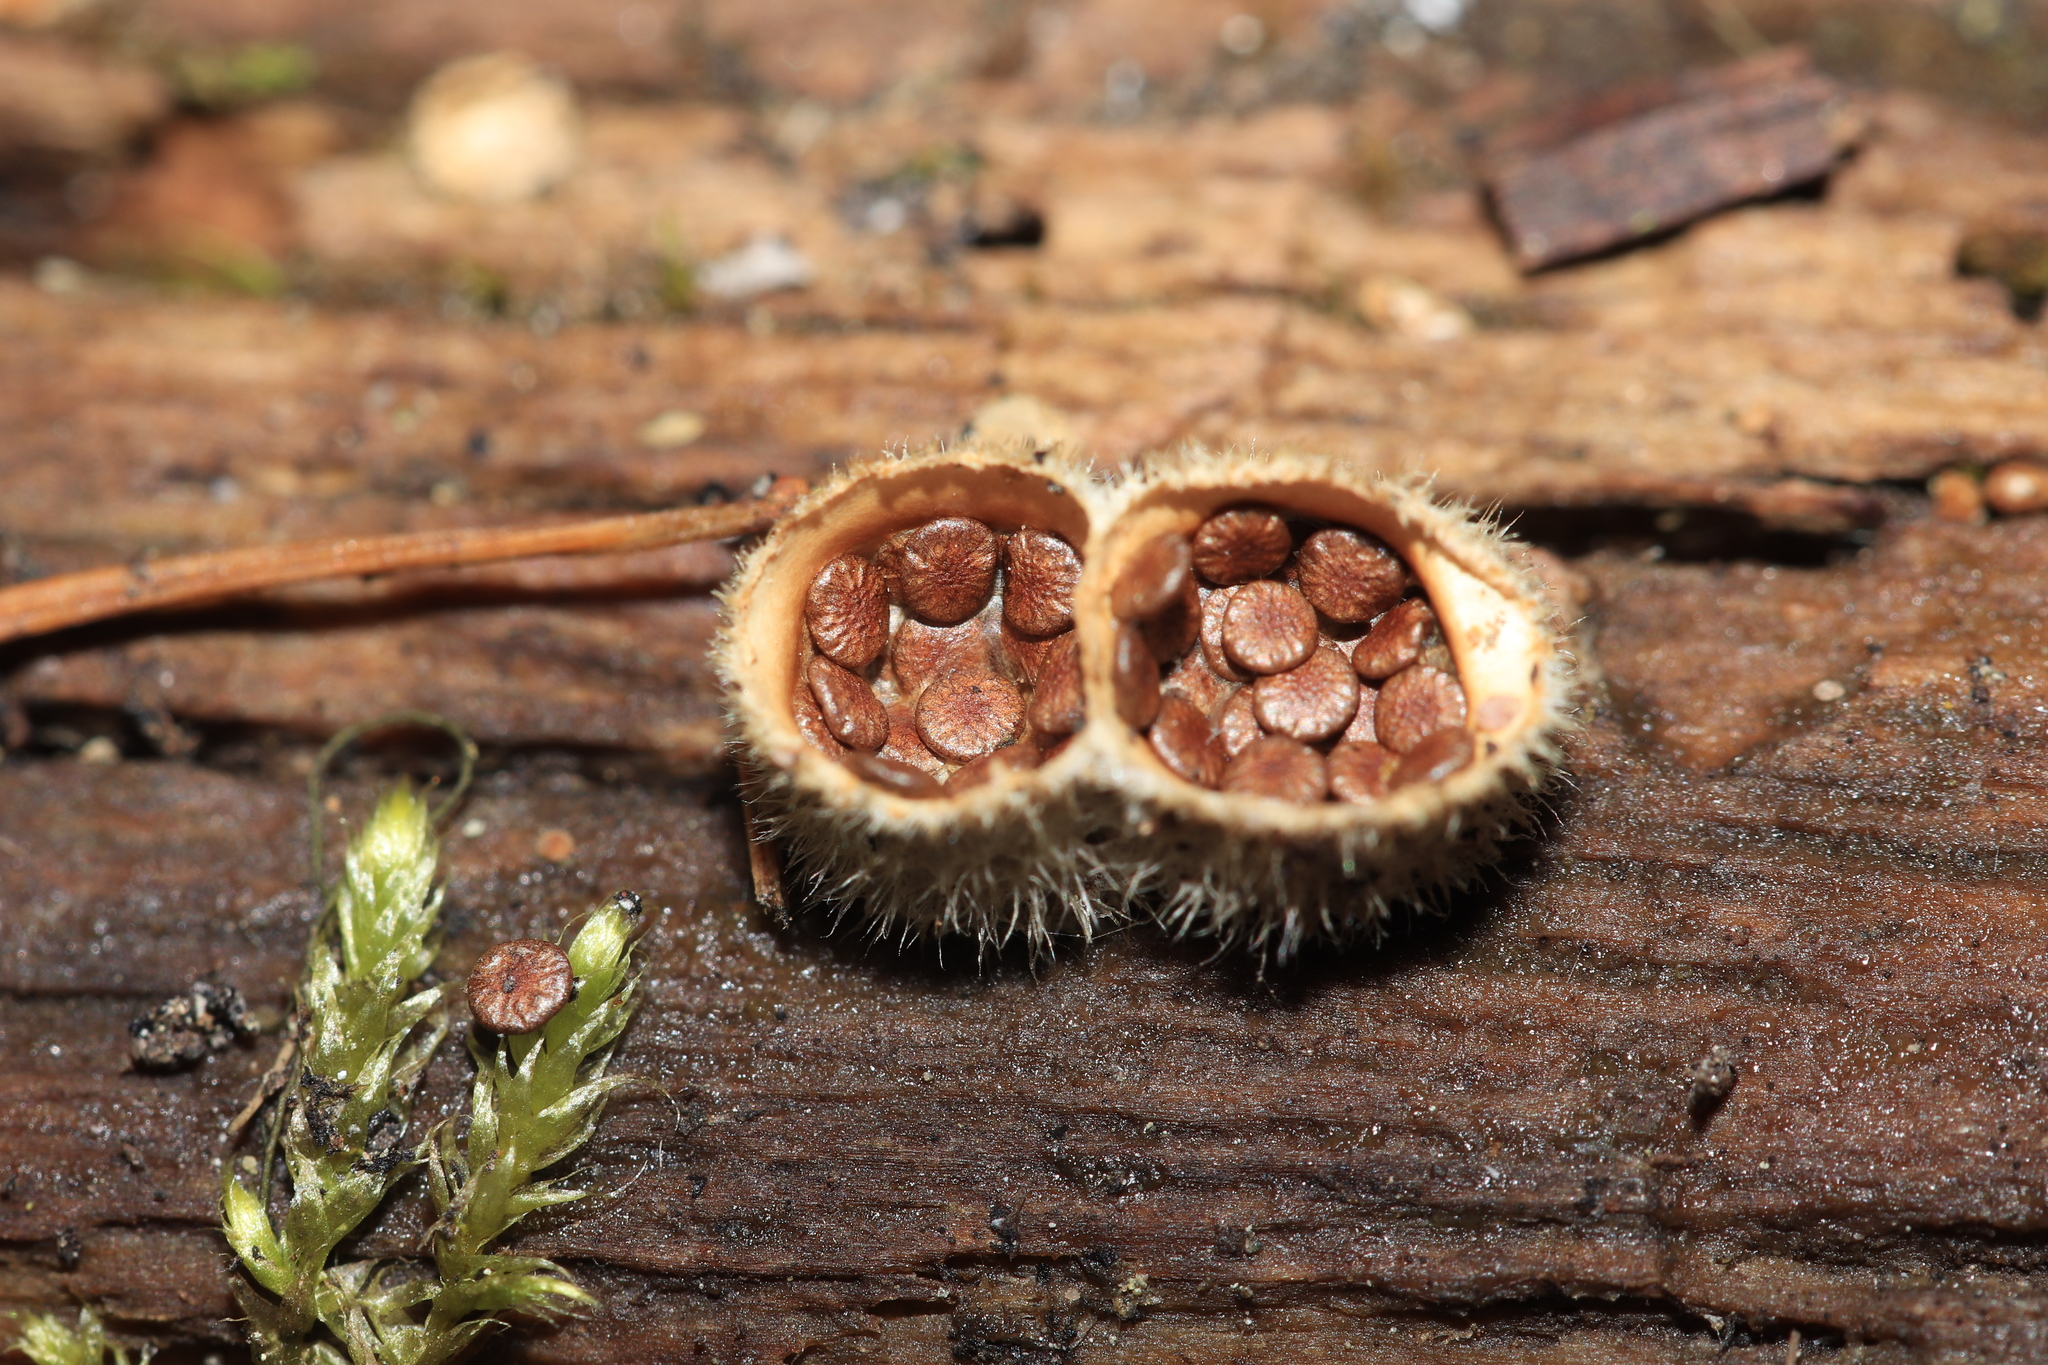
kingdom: Fungi
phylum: Basidiomycota
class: Agaricomycetes
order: Agaricales
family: Agaricaceae
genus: Nidula
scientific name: Nidula niveotomentosa
